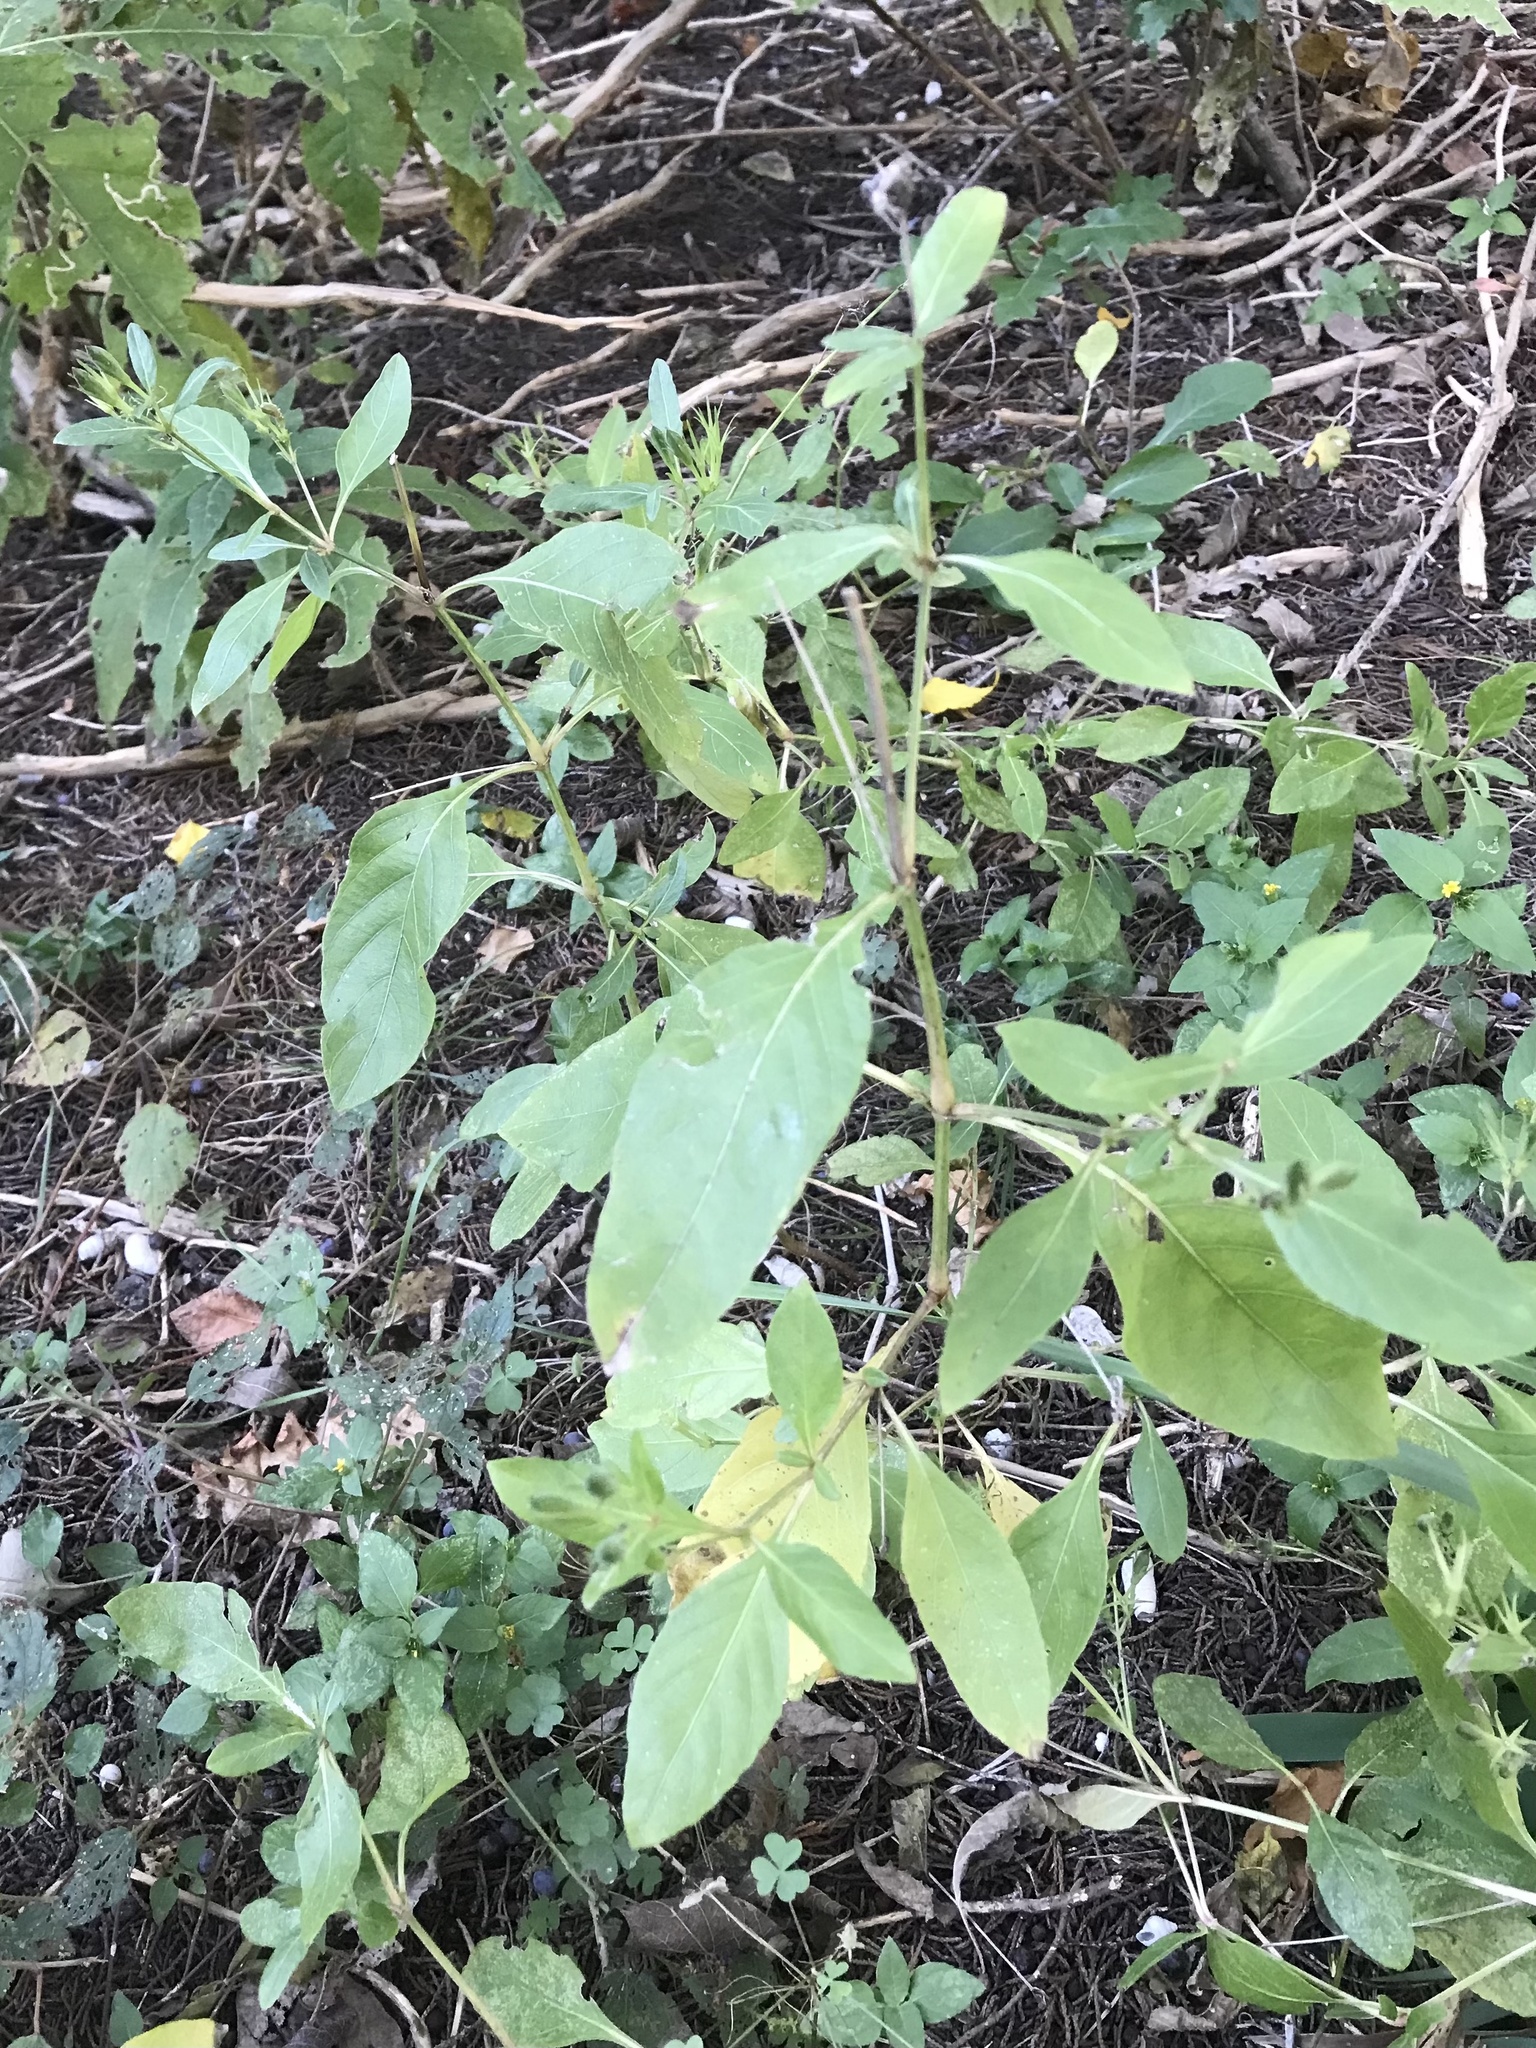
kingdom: Plantae
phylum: Tracheophyta
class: Magnoliopsida
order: Lamiales
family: Acanthaceae
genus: Ruellia
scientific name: Ruellia ciliatiflora
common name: Hairyflower wild petunia
